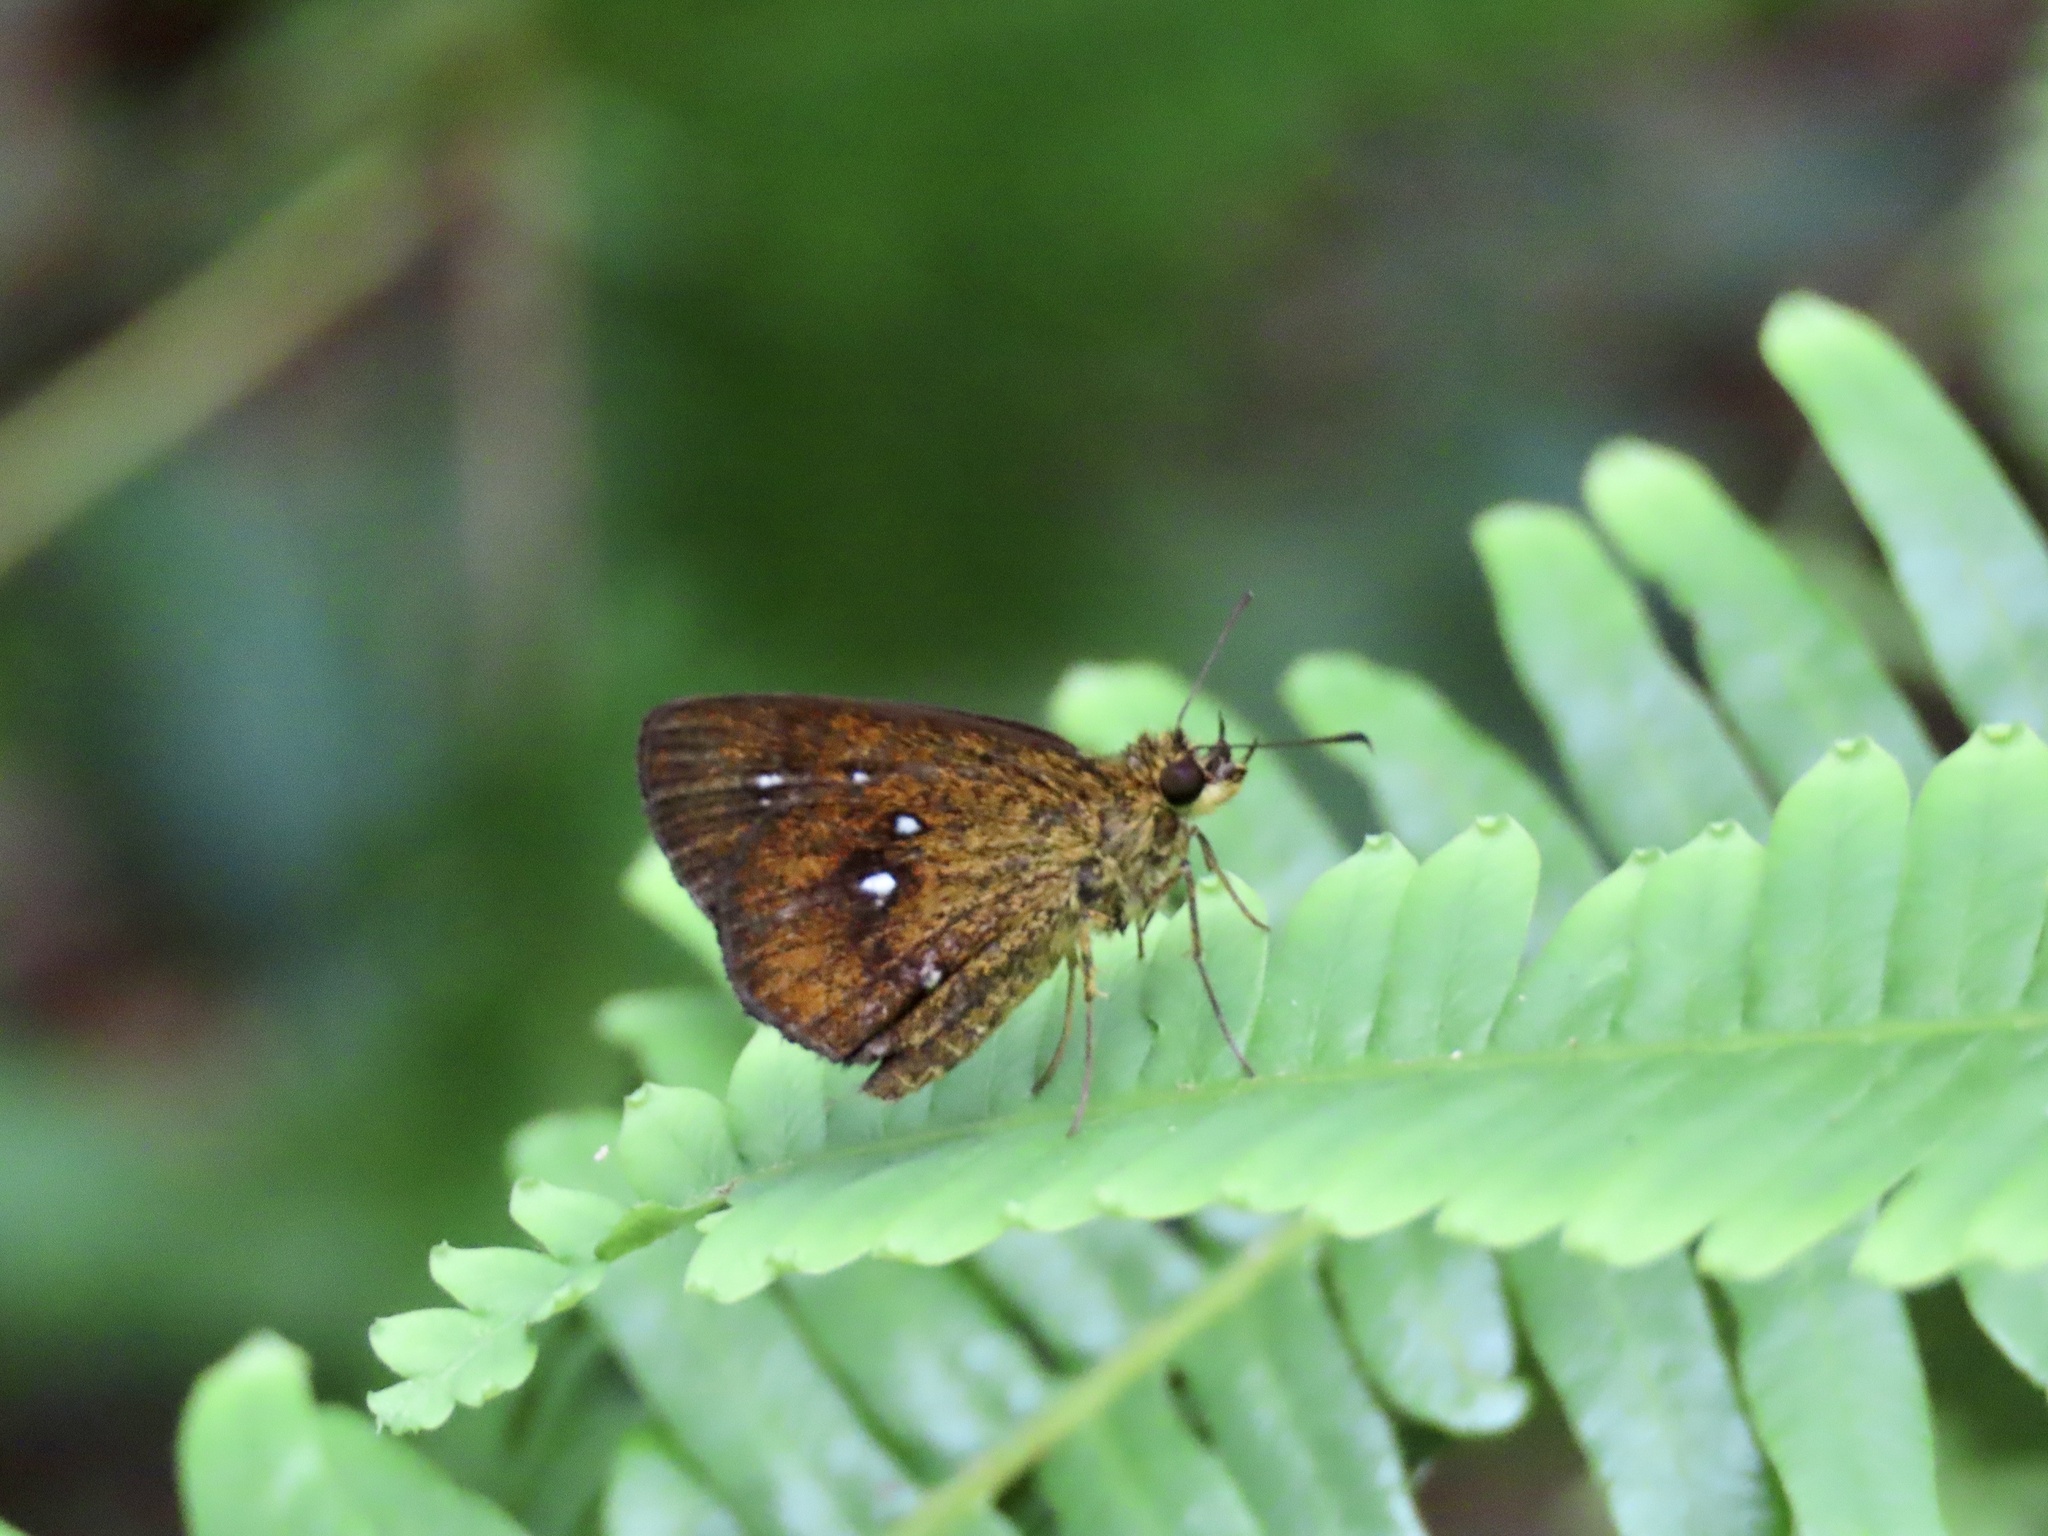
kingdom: Animalia
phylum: Arthropoda
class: Insecta
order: Lepidoptera
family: Hesperiidae
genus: Iambrix
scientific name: Iambrix salsala
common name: Chestnut bob
